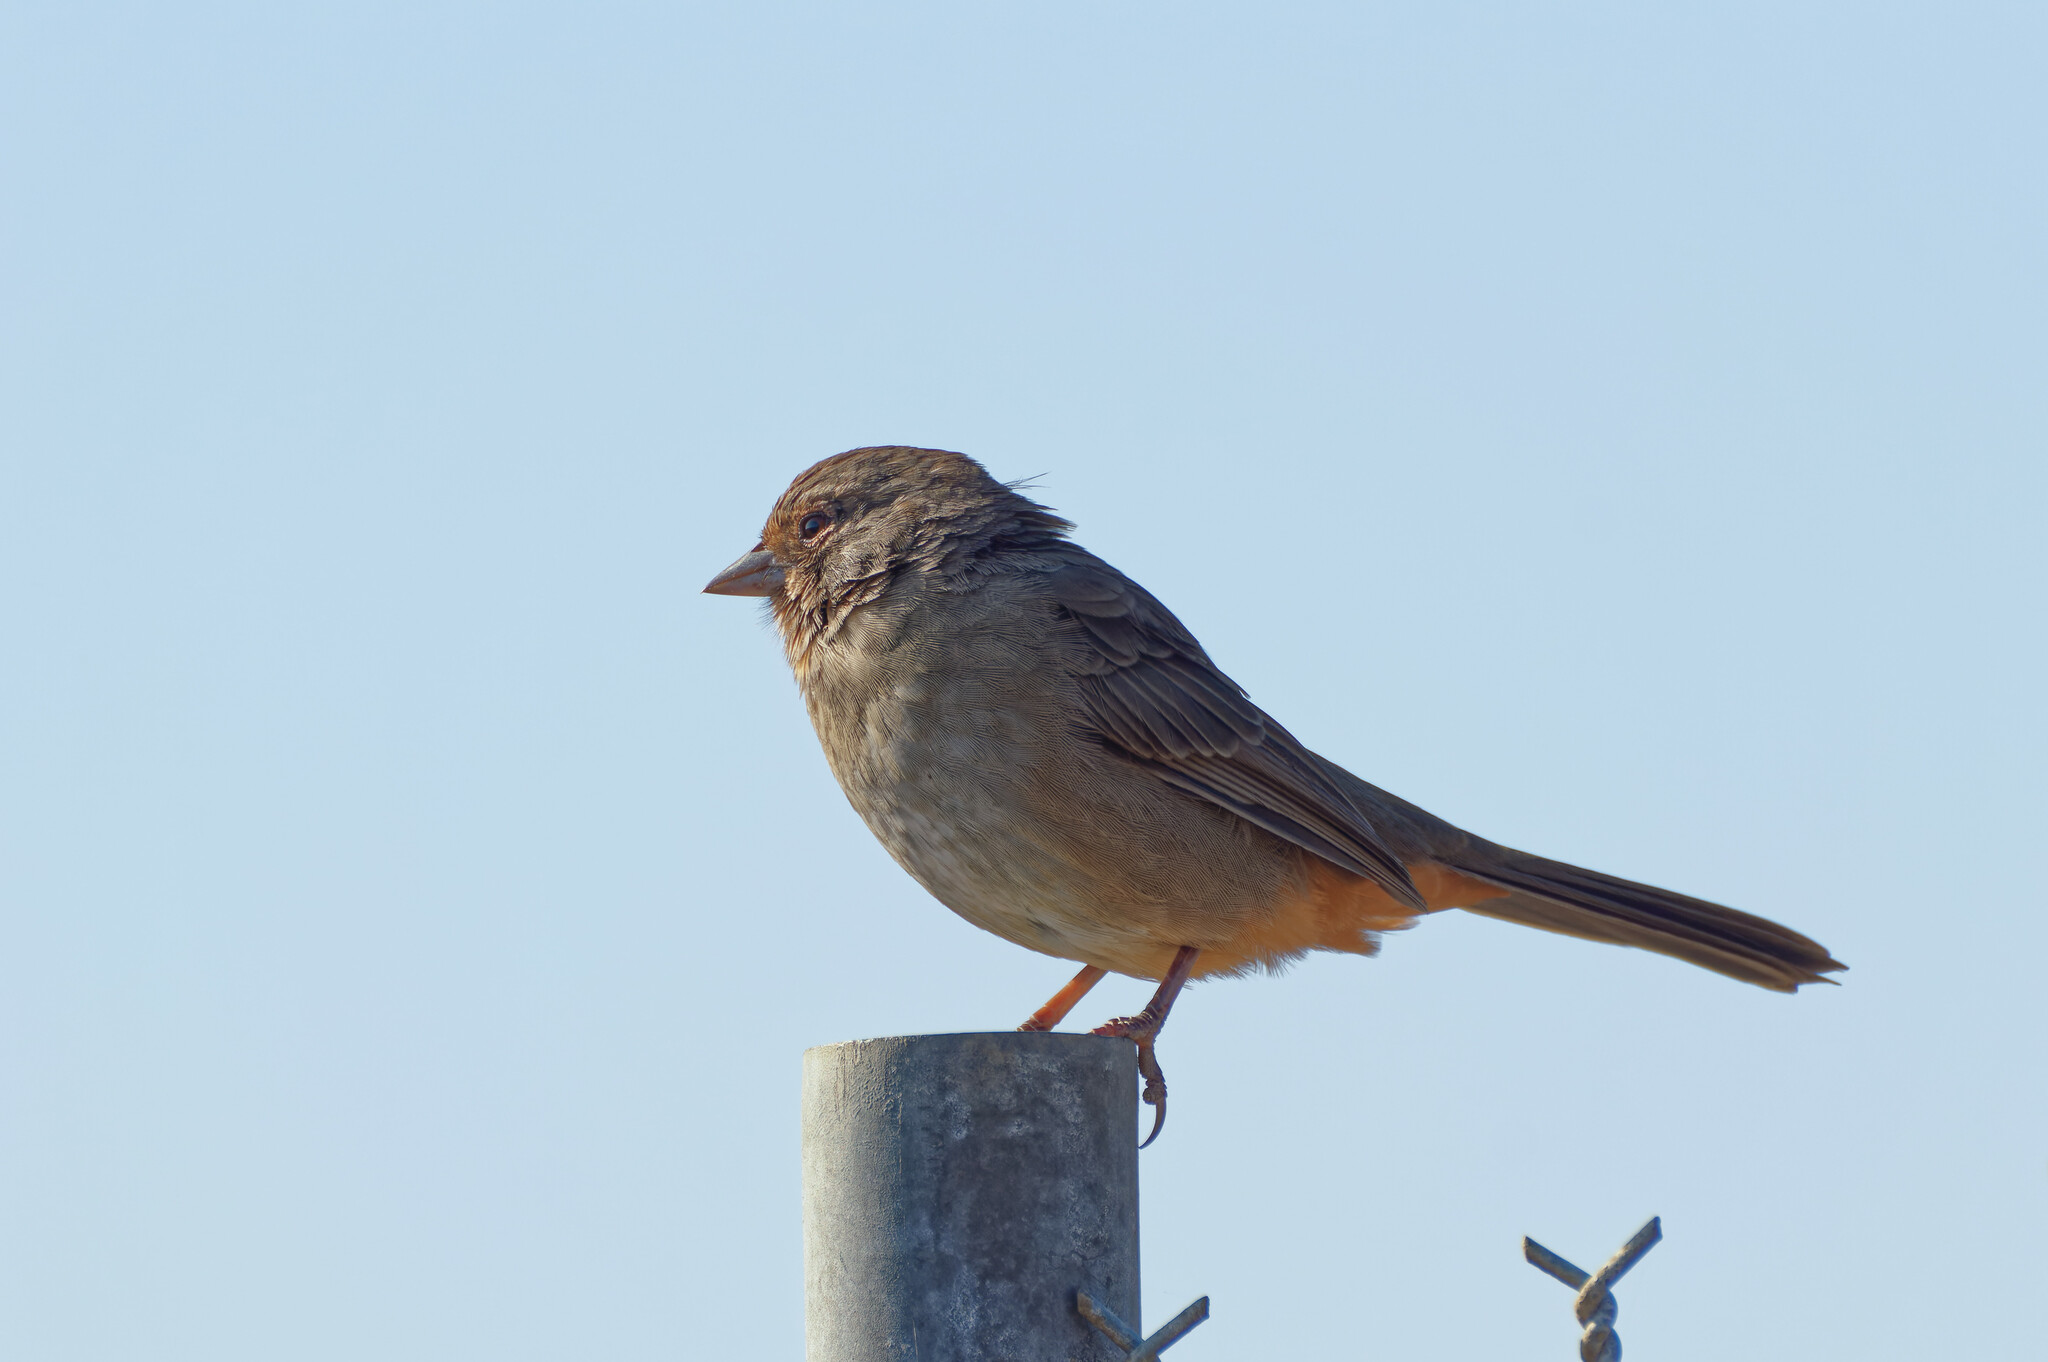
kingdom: Animalia
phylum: Chordata
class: Aves
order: Passeriformes
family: Passerellidae
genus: Melozone
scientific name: Melozone crissalis
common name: California towhee
